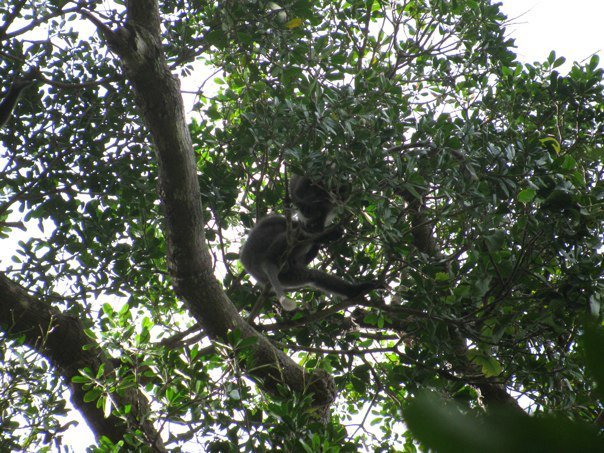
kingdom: Animalia
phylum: Chordata
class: Mammalia
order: Primates
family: Cercopithecidae
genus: Semnopithecus
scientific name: Semnopithecus vetulus
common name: Purple-faced langur
